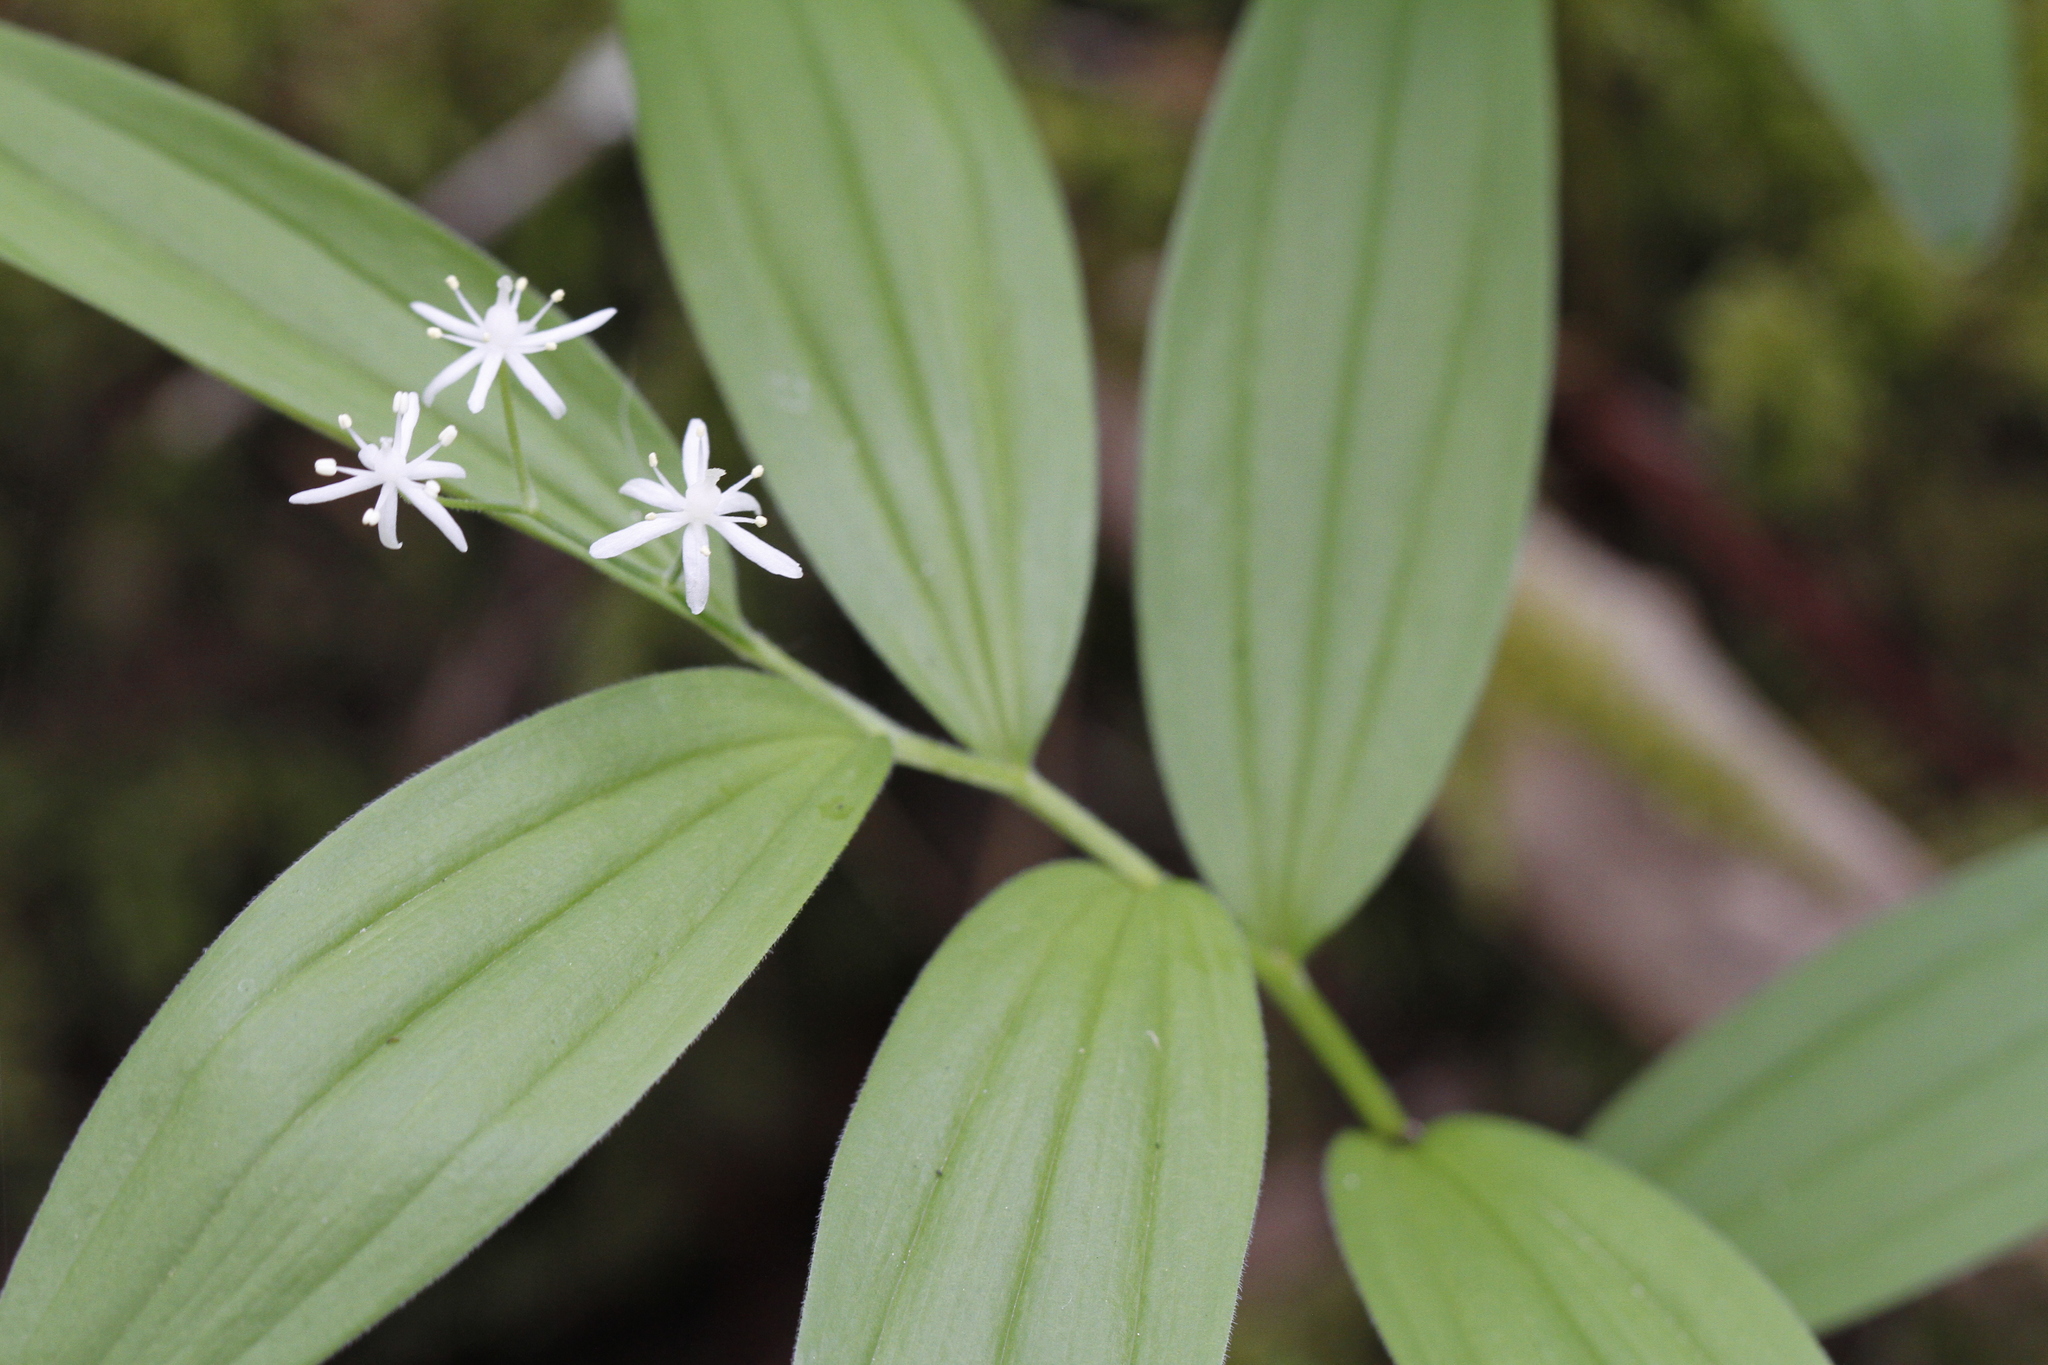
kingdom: Plantae
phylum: Tracheophyta
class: Liliopsida
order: Asparagales
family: Asparagaceae
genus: Maianthemum
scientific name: Maianthemum stellatum
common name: Little false solomon's seal
